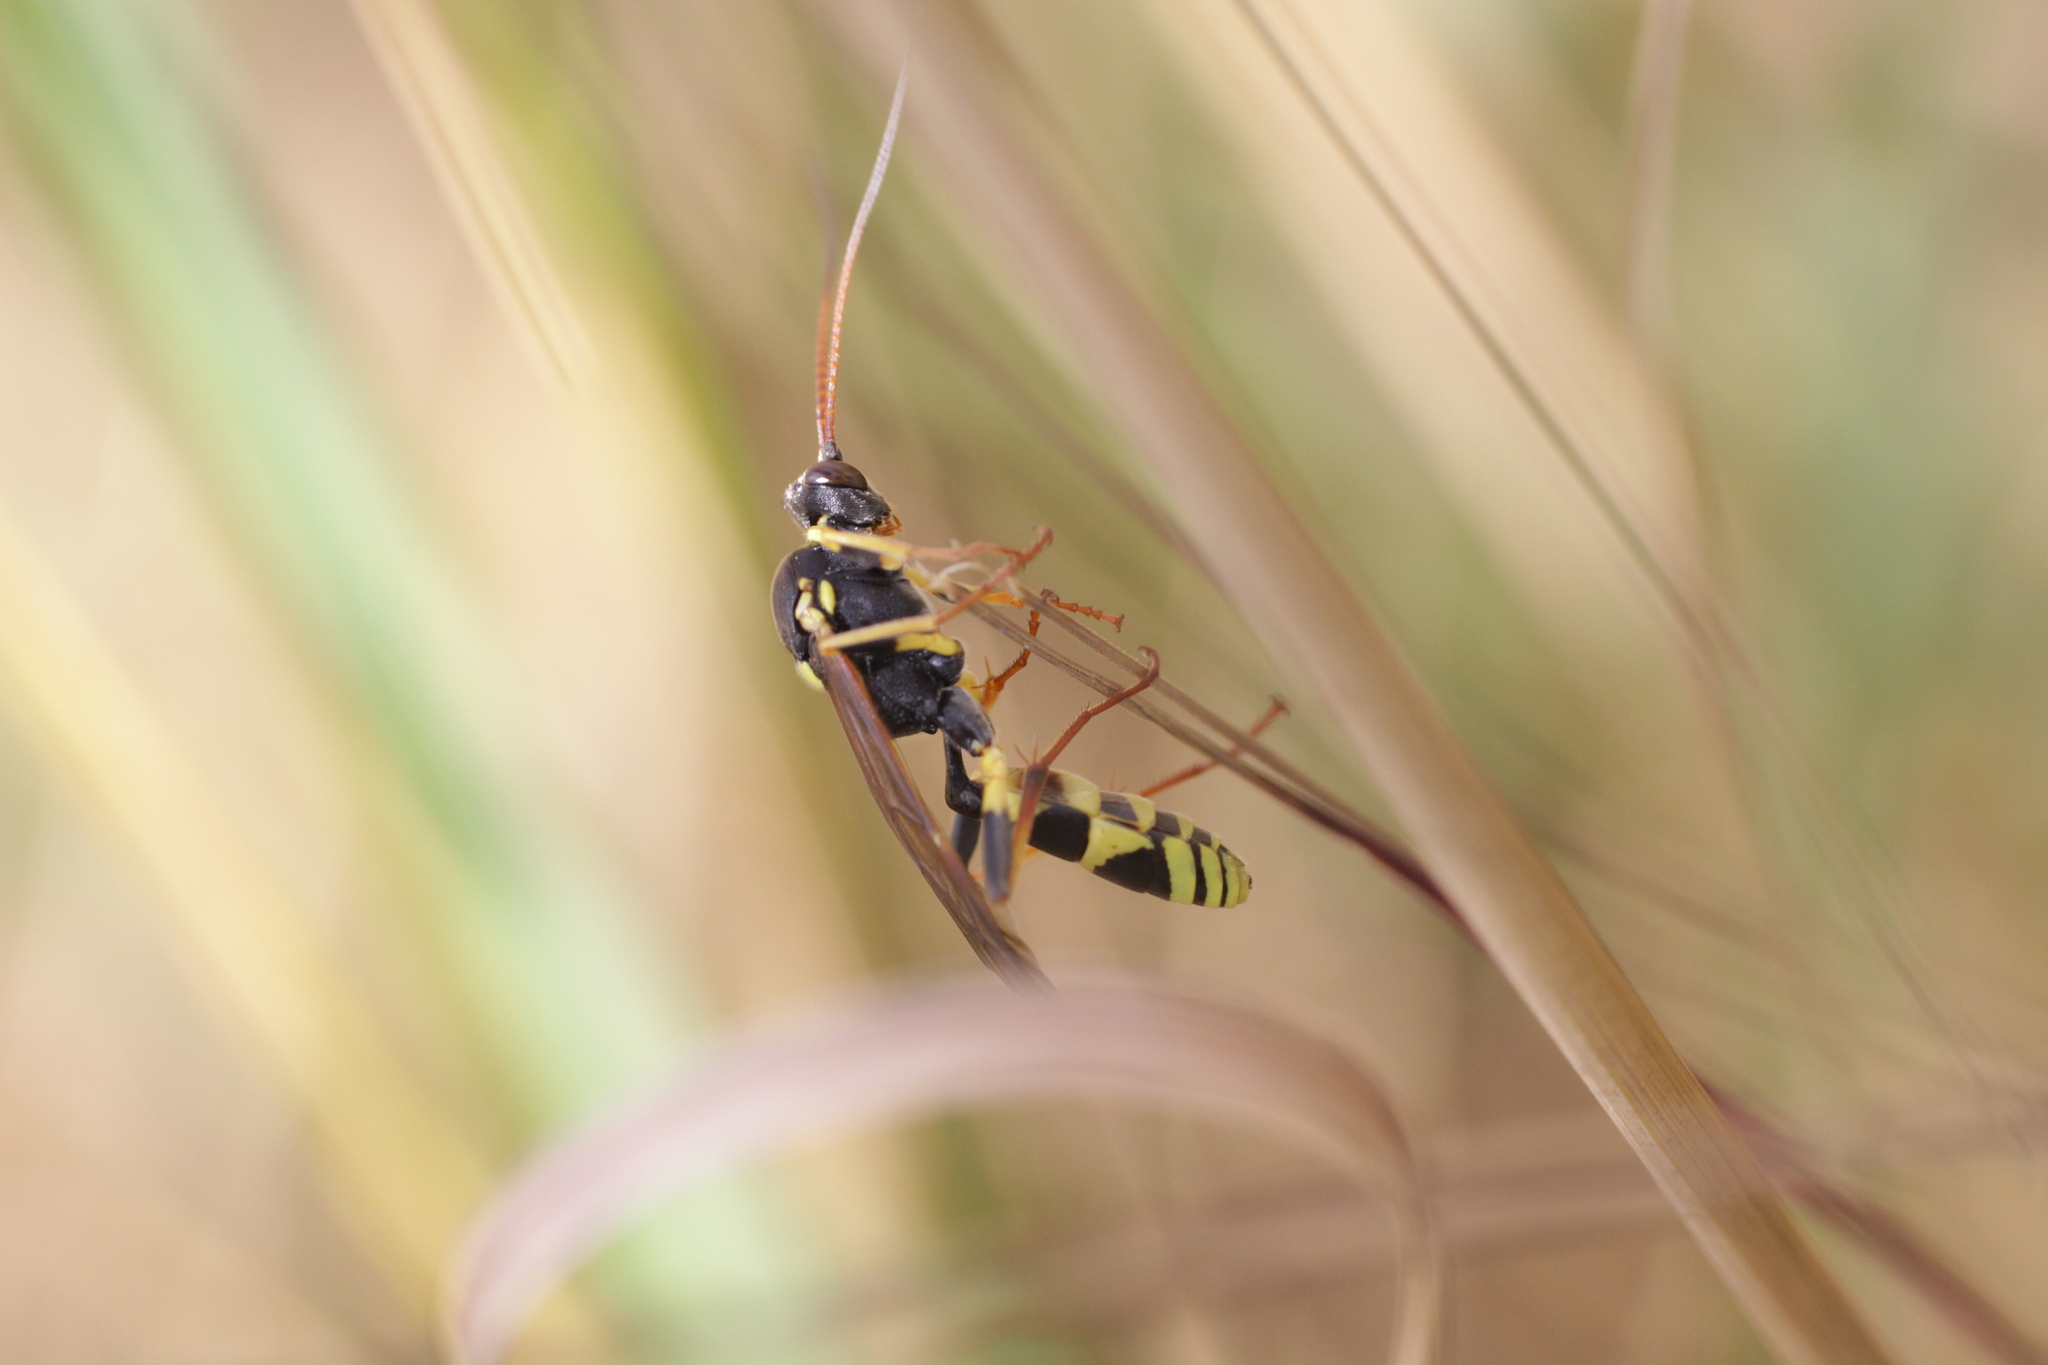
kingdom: Animalia
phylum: Arthropoda
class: Insecta
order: Hymenoptera
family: Ichneumonidae
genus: Amblyteles
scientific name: Amblyteles armatorius
